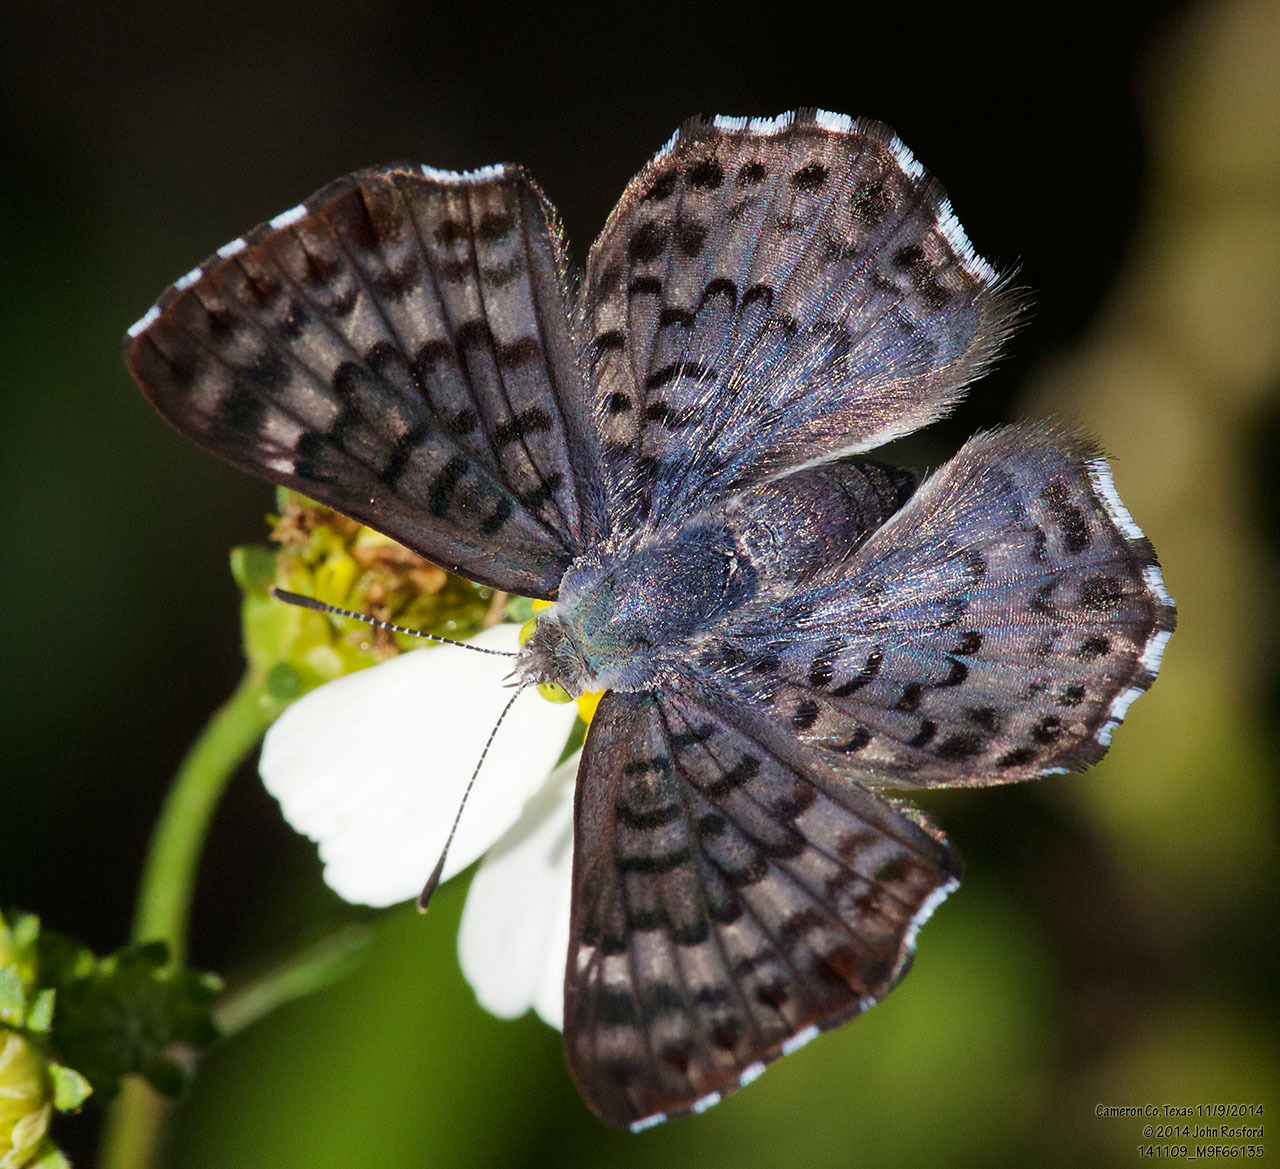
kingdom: Animalia
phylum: Arthropoda
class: Insecta
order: Lepidoptera
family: Riodinidae
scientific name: Riodinidae
